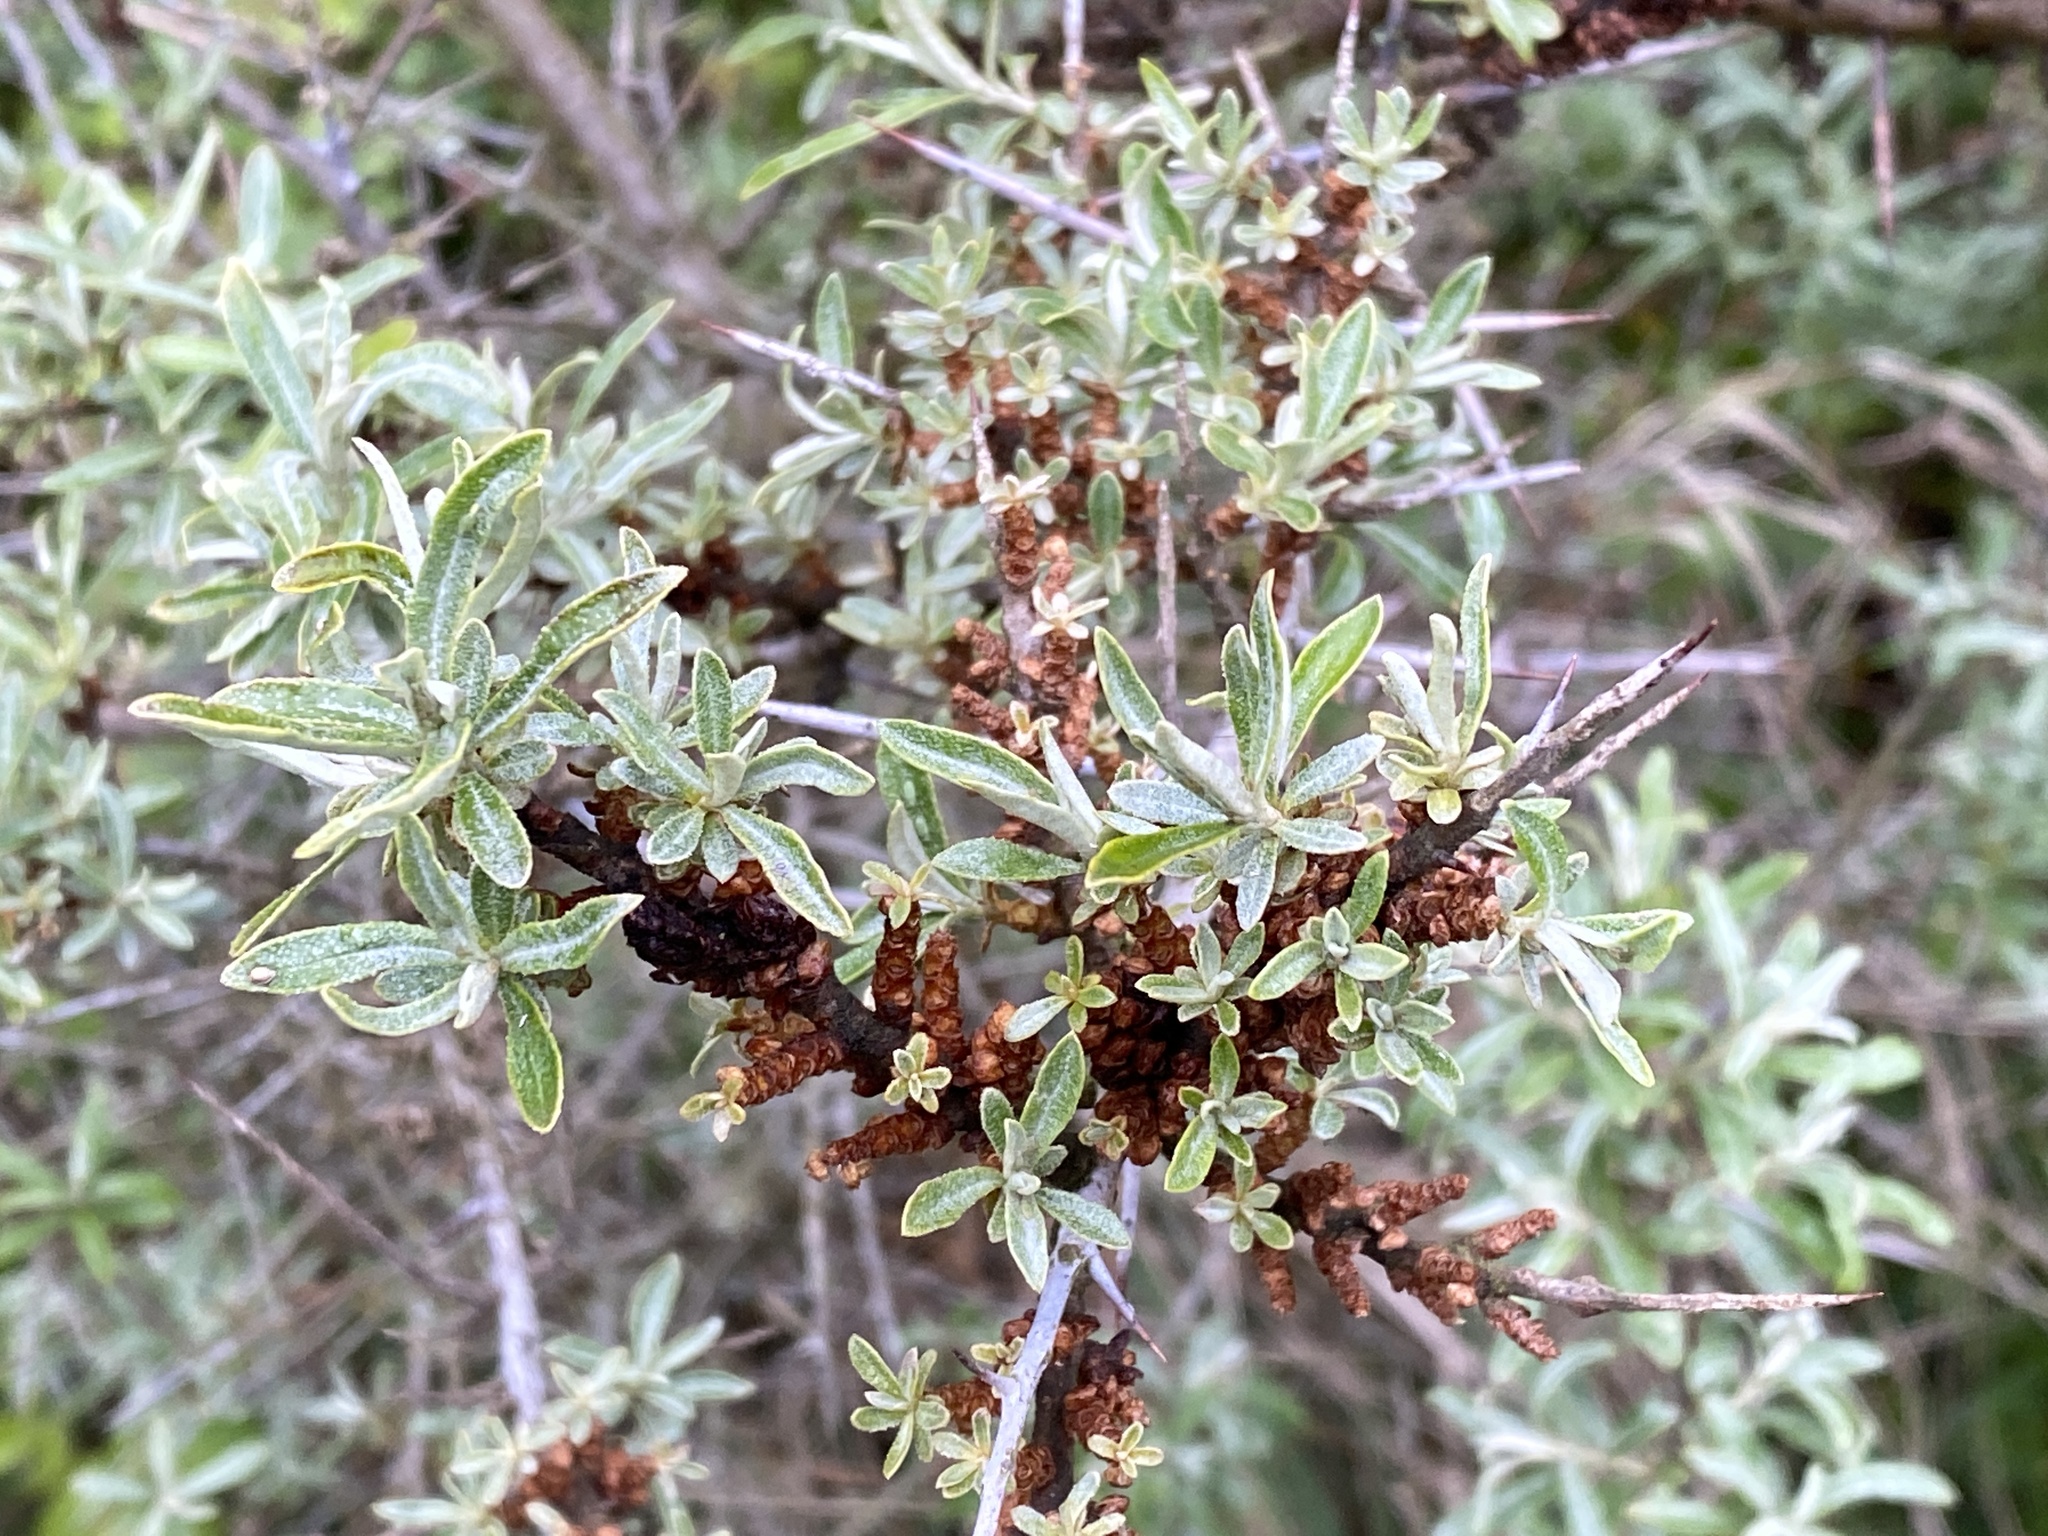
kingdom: Plantae
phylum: Tracheophyta
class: Magnoliopsida
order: Rosales
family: Elaeagnaceae
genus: Hippophae
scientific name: Hippophae rhamnoides
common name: Sea-buckthorn
